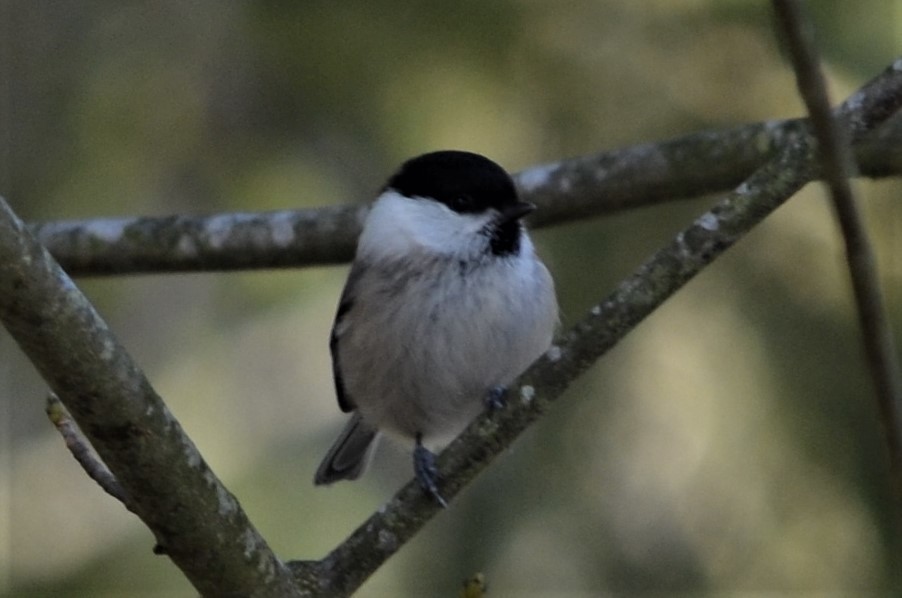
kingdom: Animalia
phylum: Chordata
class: Aves
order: Passeriformes
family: Paridae
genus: Poecile
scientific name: Poecile montanus
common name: Willow tit
